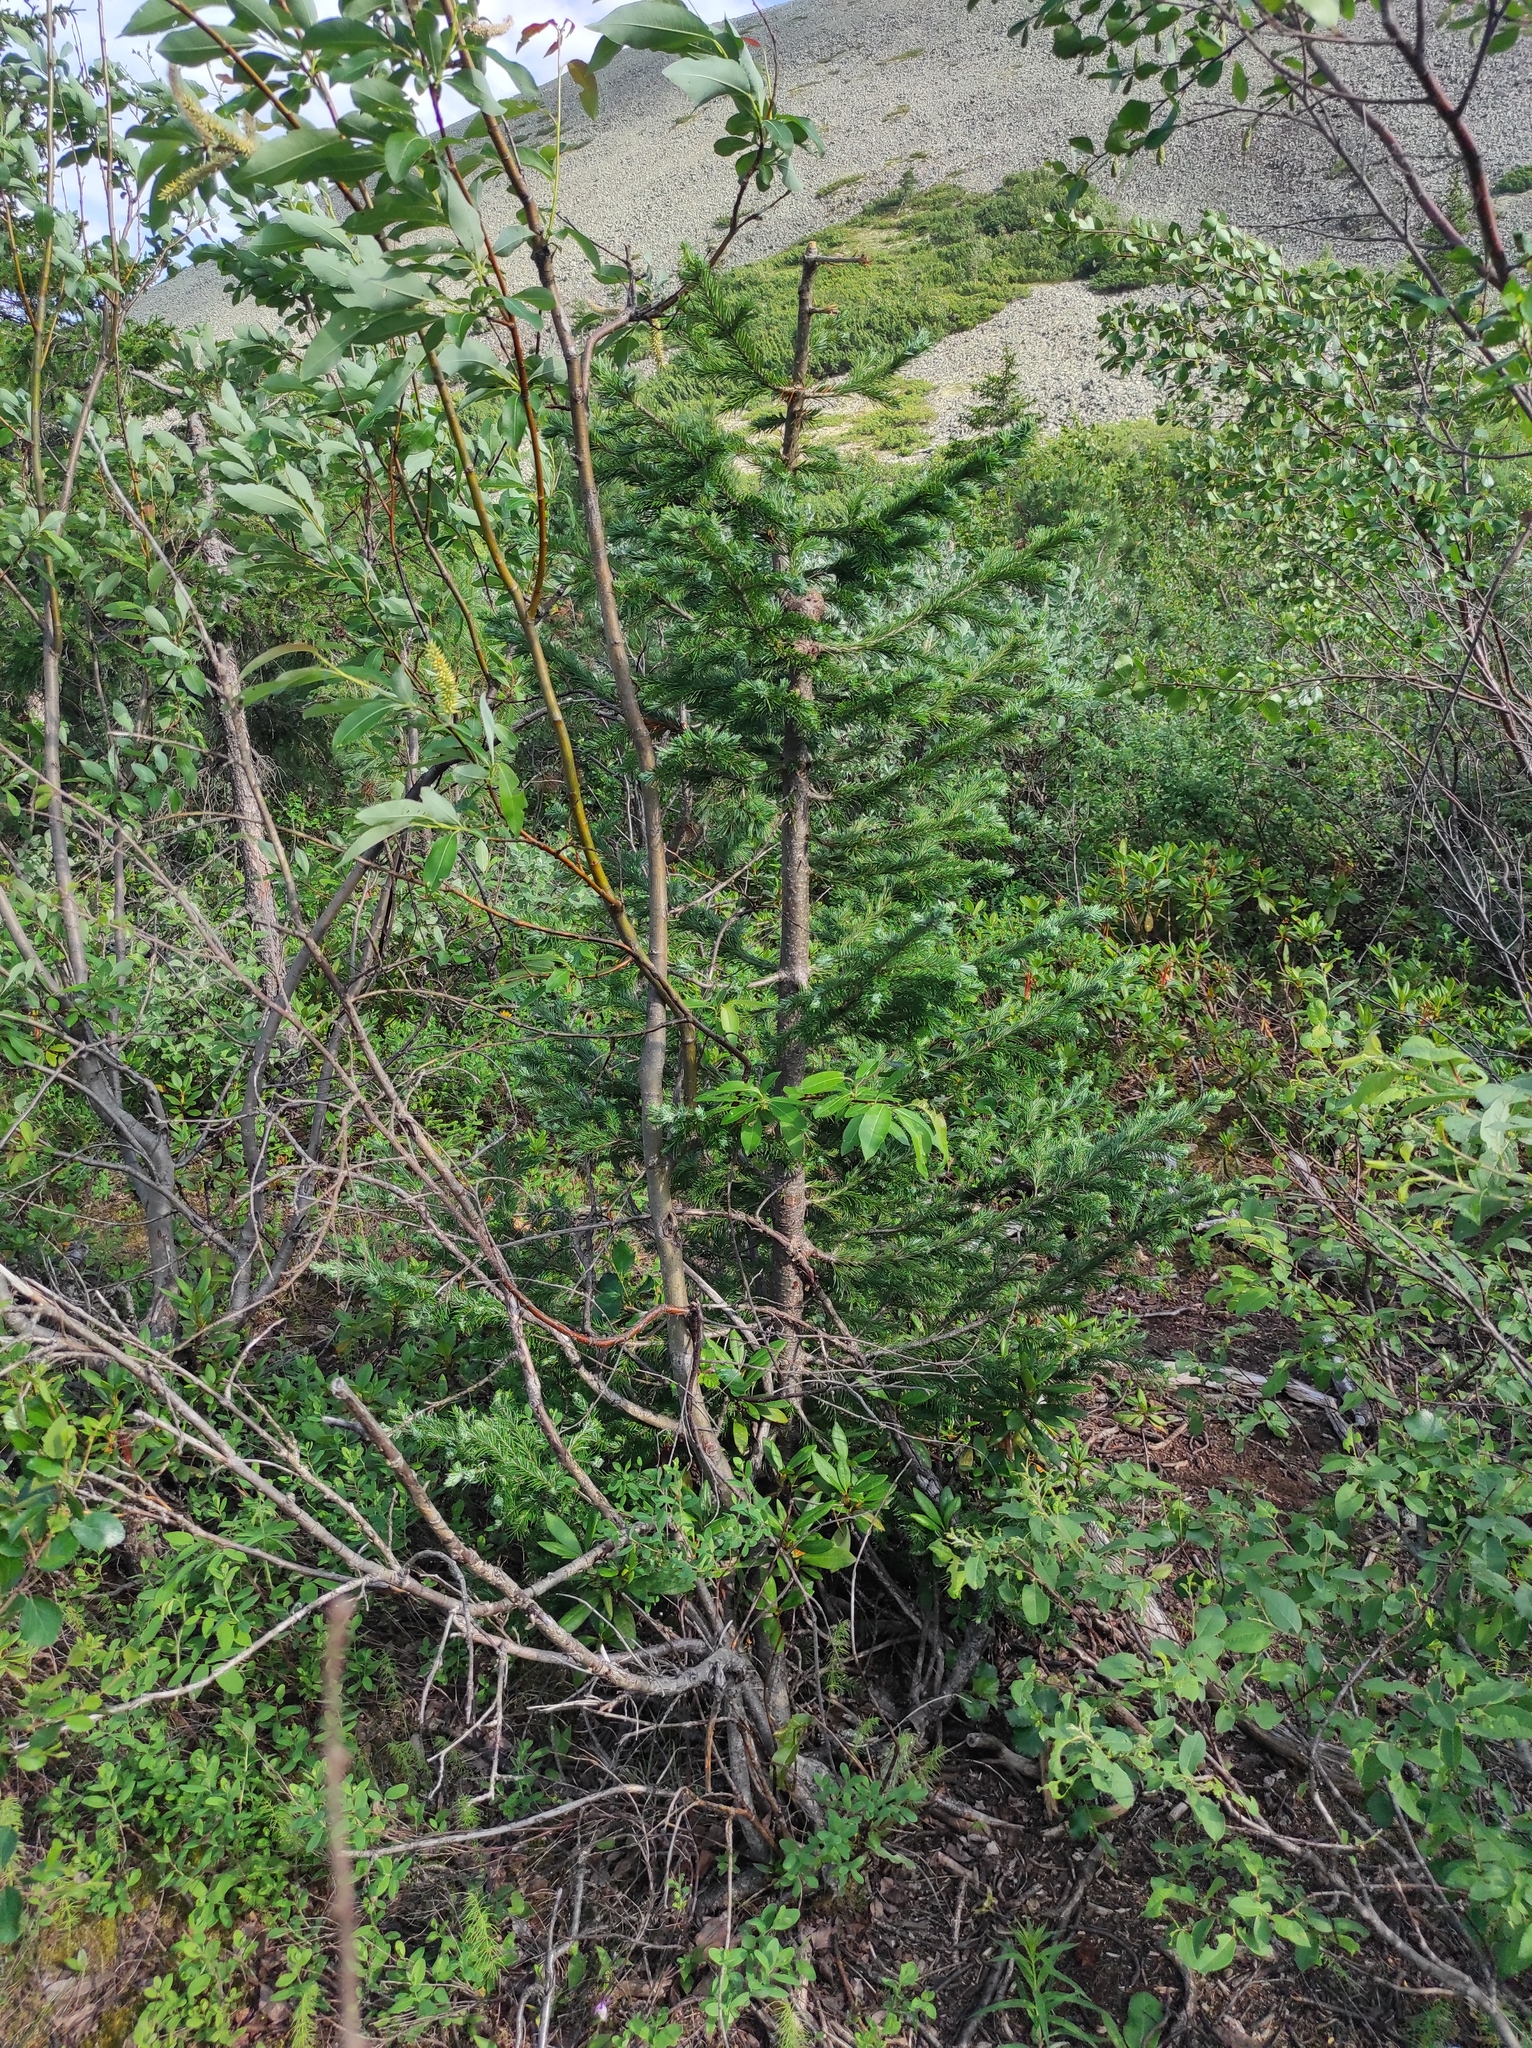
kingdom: Plantae
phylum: Tracheophyta
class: Pinopsida
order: Pinales
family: Pinaceae
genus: Abies
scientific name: Abies sibirica
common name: Siberian fir
